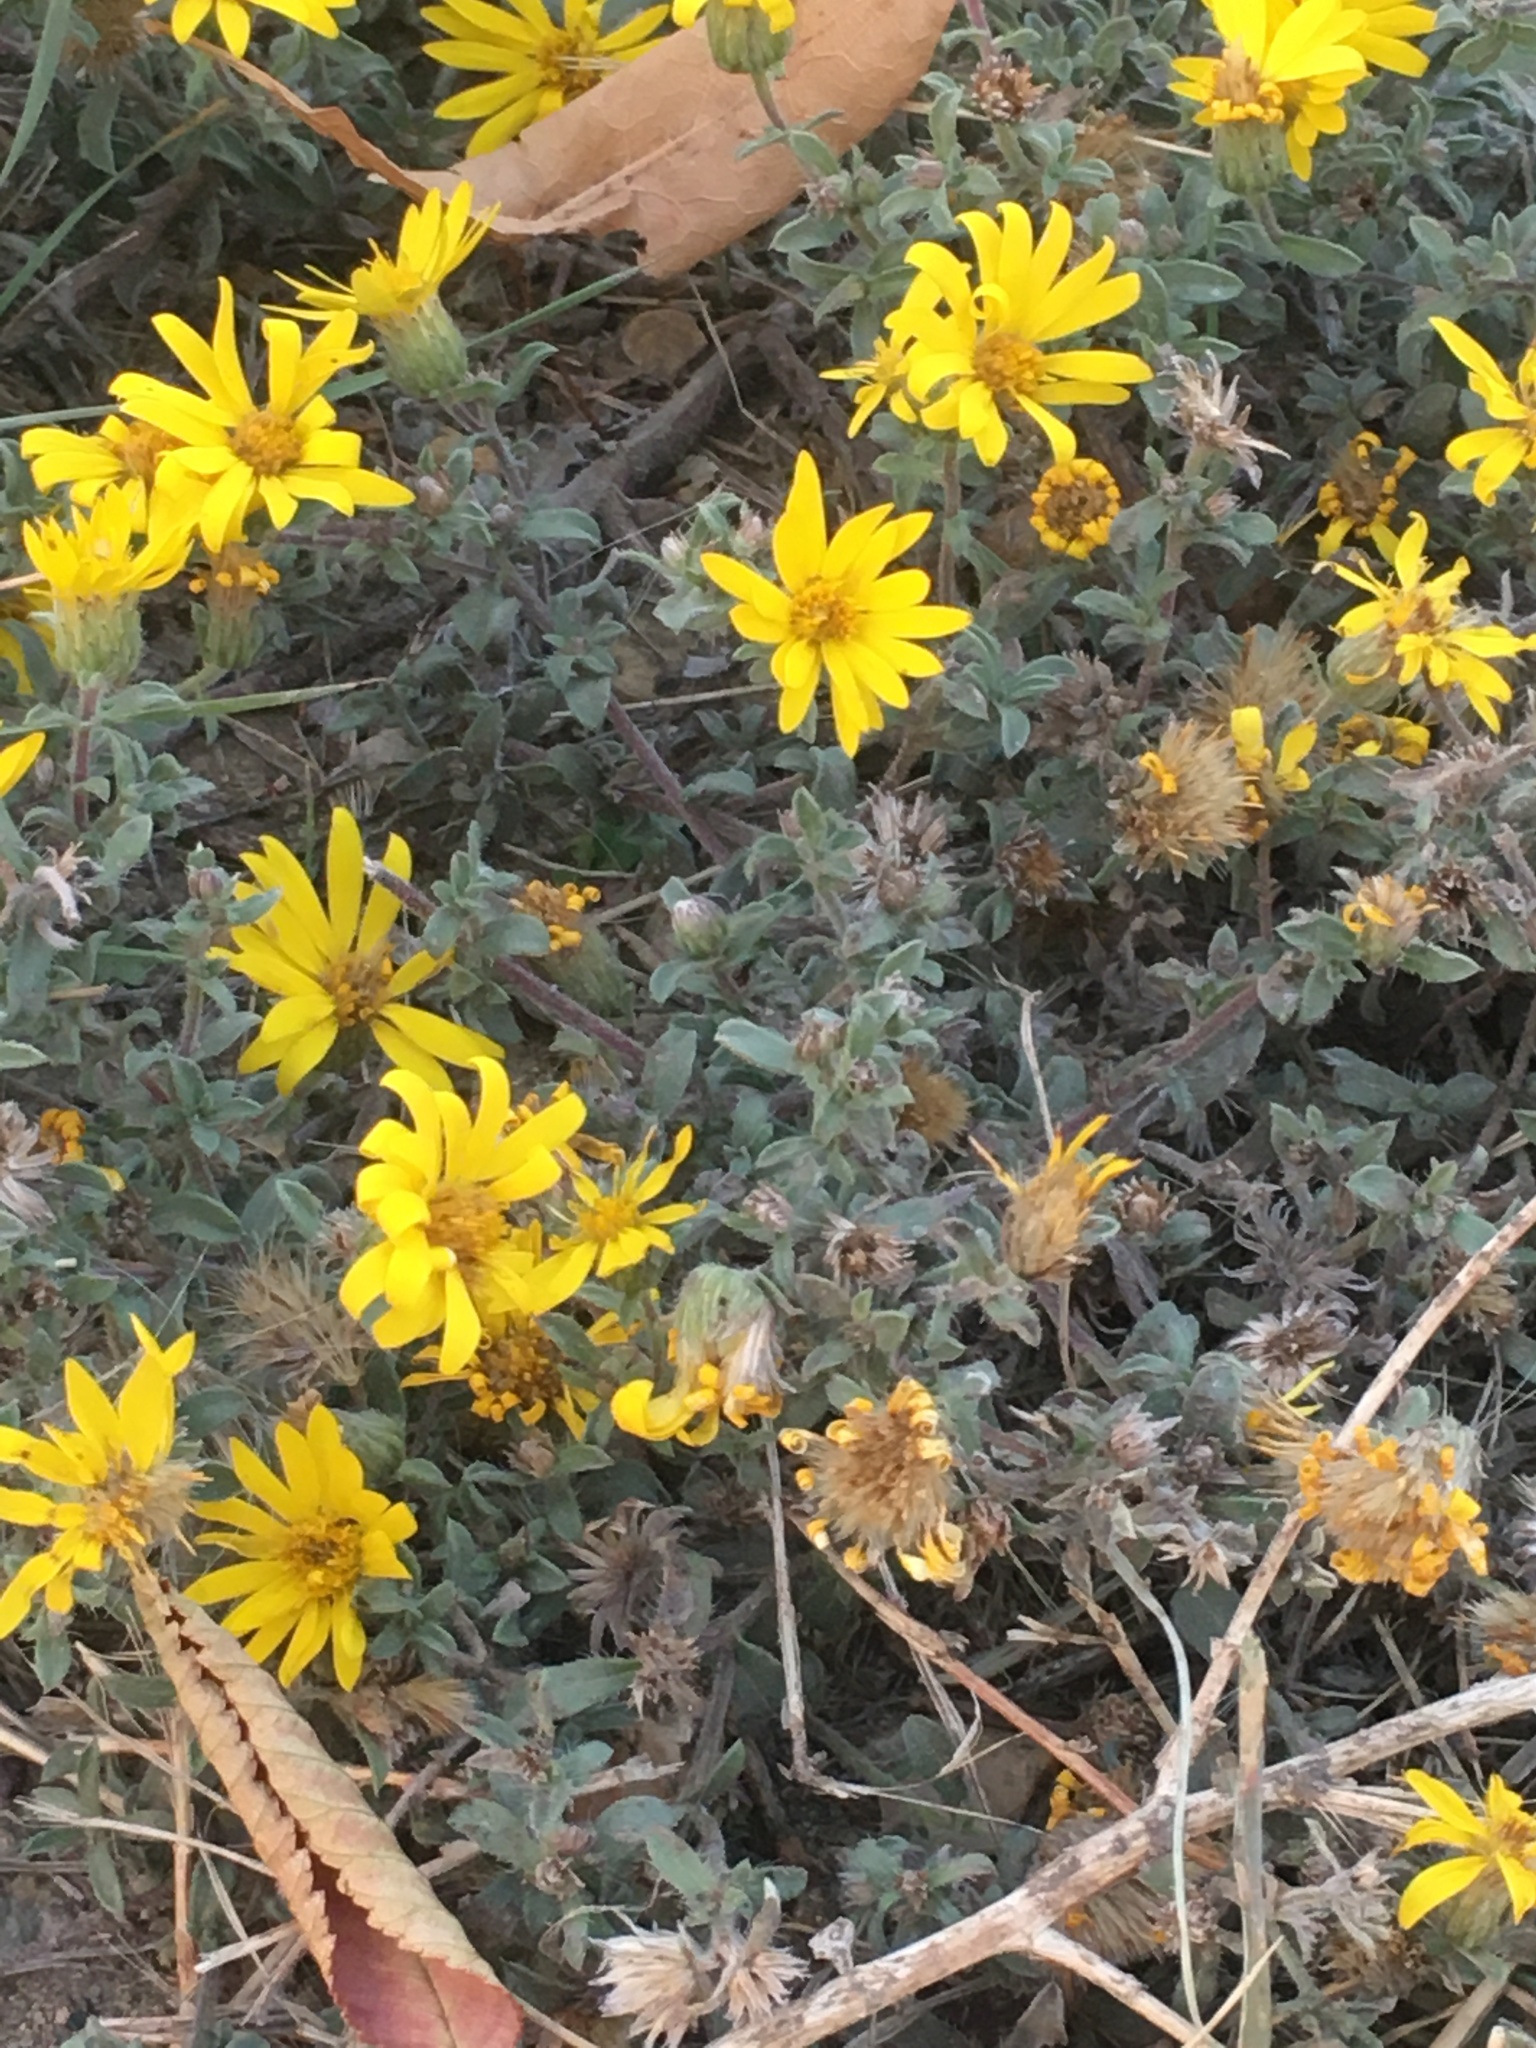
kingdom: Plantae
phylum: Tracheophyta
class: Magnoliopsida
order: Asterales
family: Asteraceae
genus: Heterotheca
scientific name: Heterotheca villosa
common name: Hairy false goldenaster
